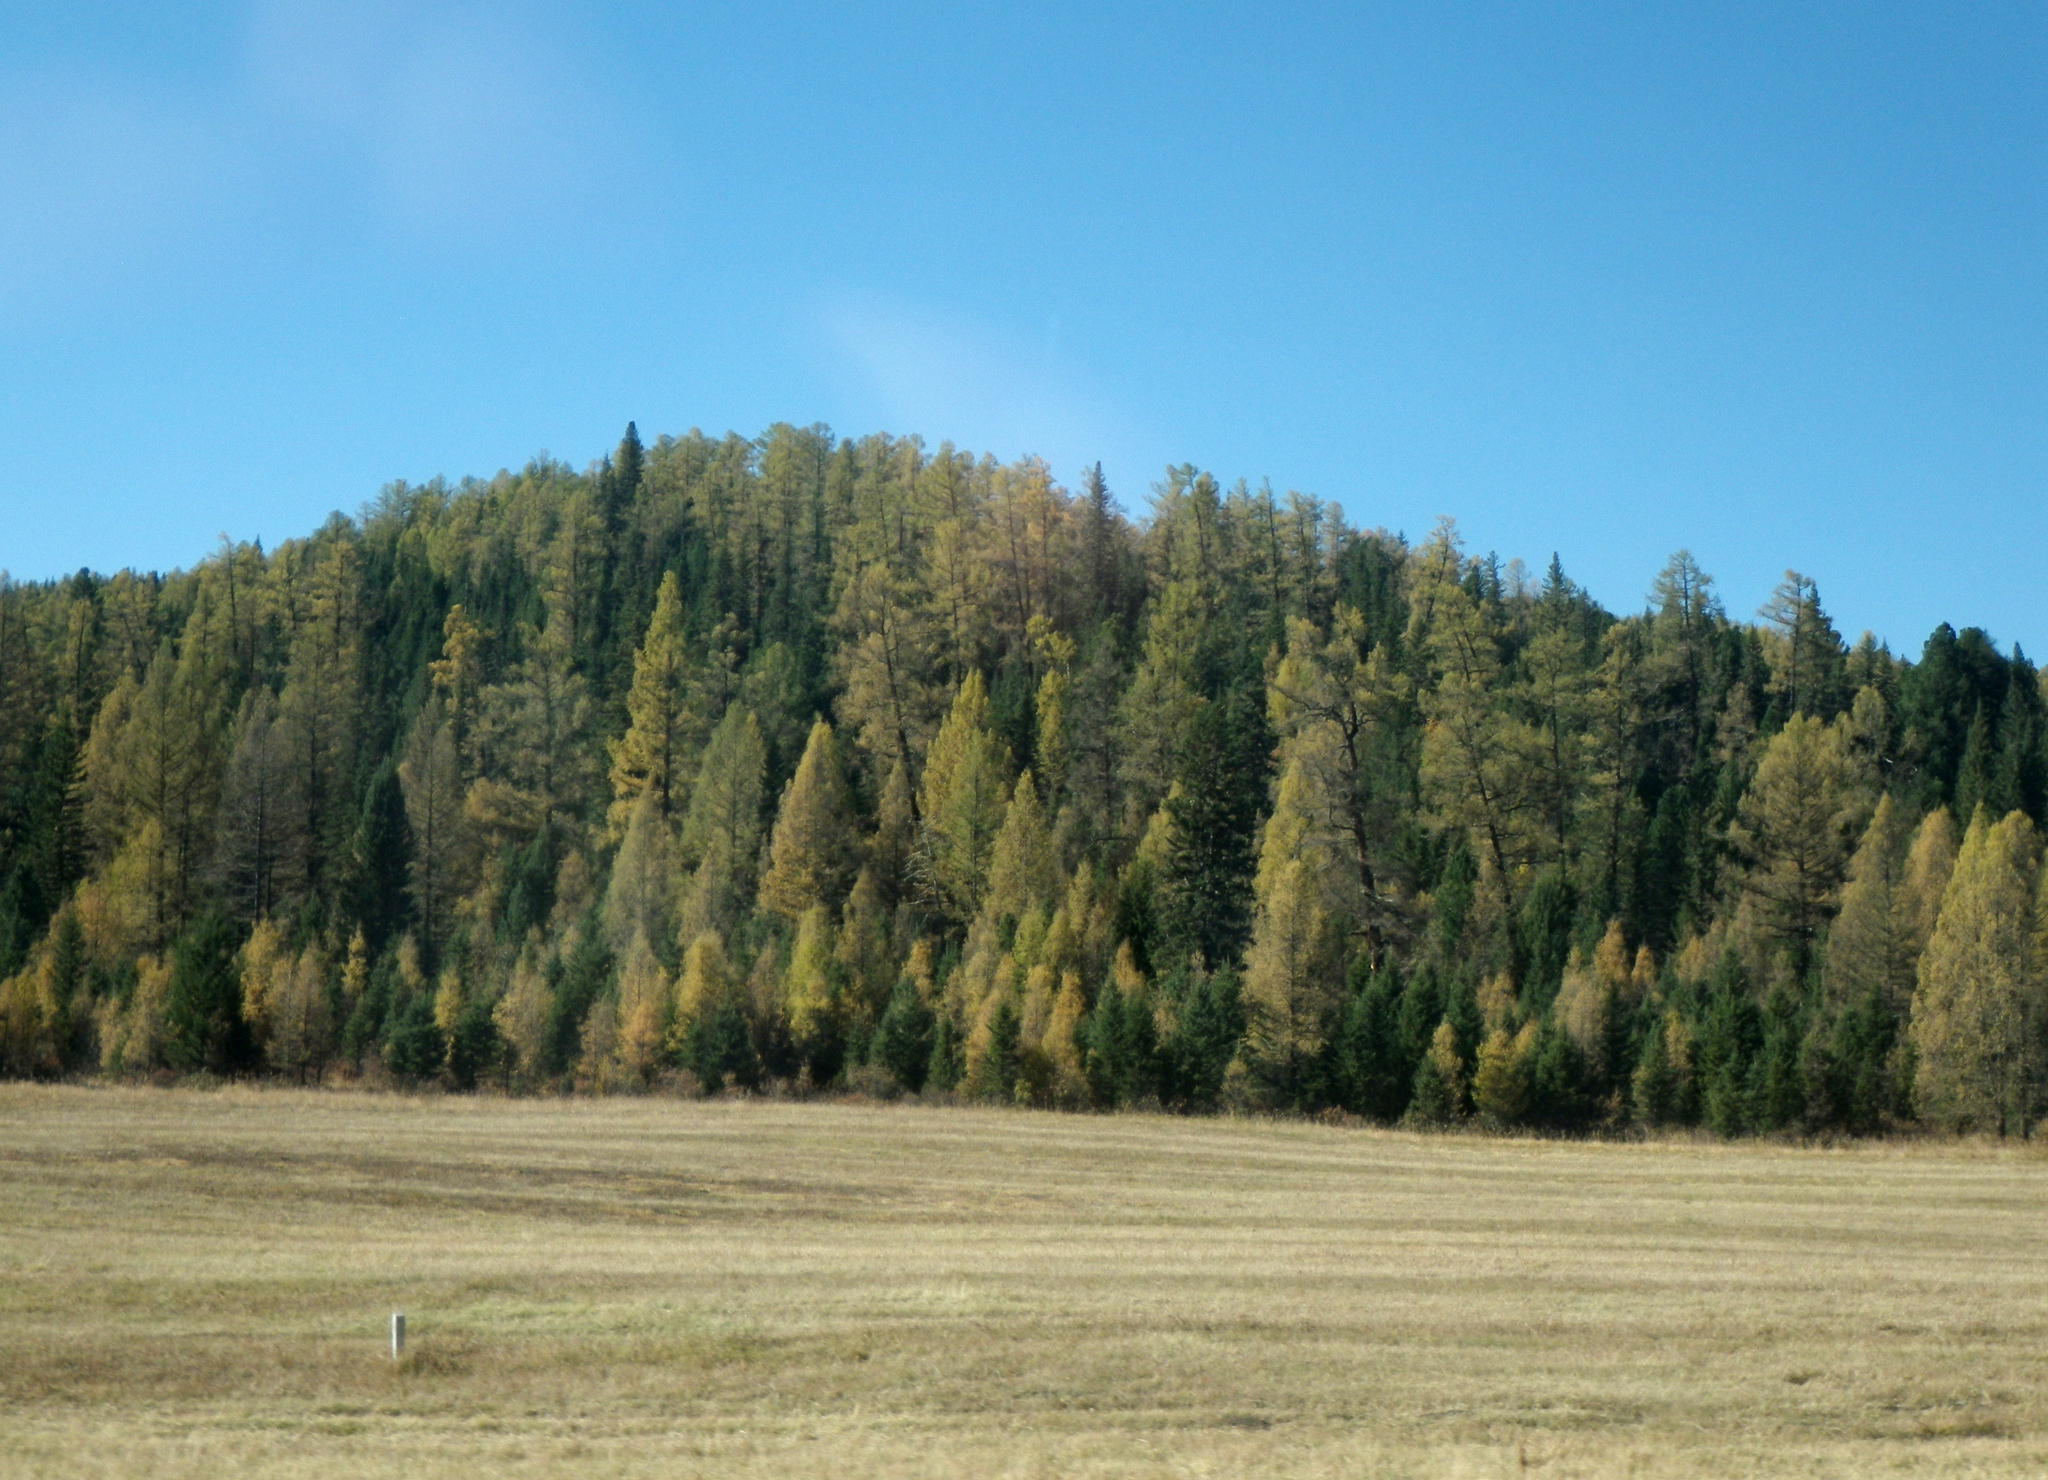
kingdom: Plantae
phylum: Tracheophyta
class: Pinopsida
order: Pinales
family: Pinaceae
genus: Picea
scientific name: Picea obovata
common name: Siberian spruce
